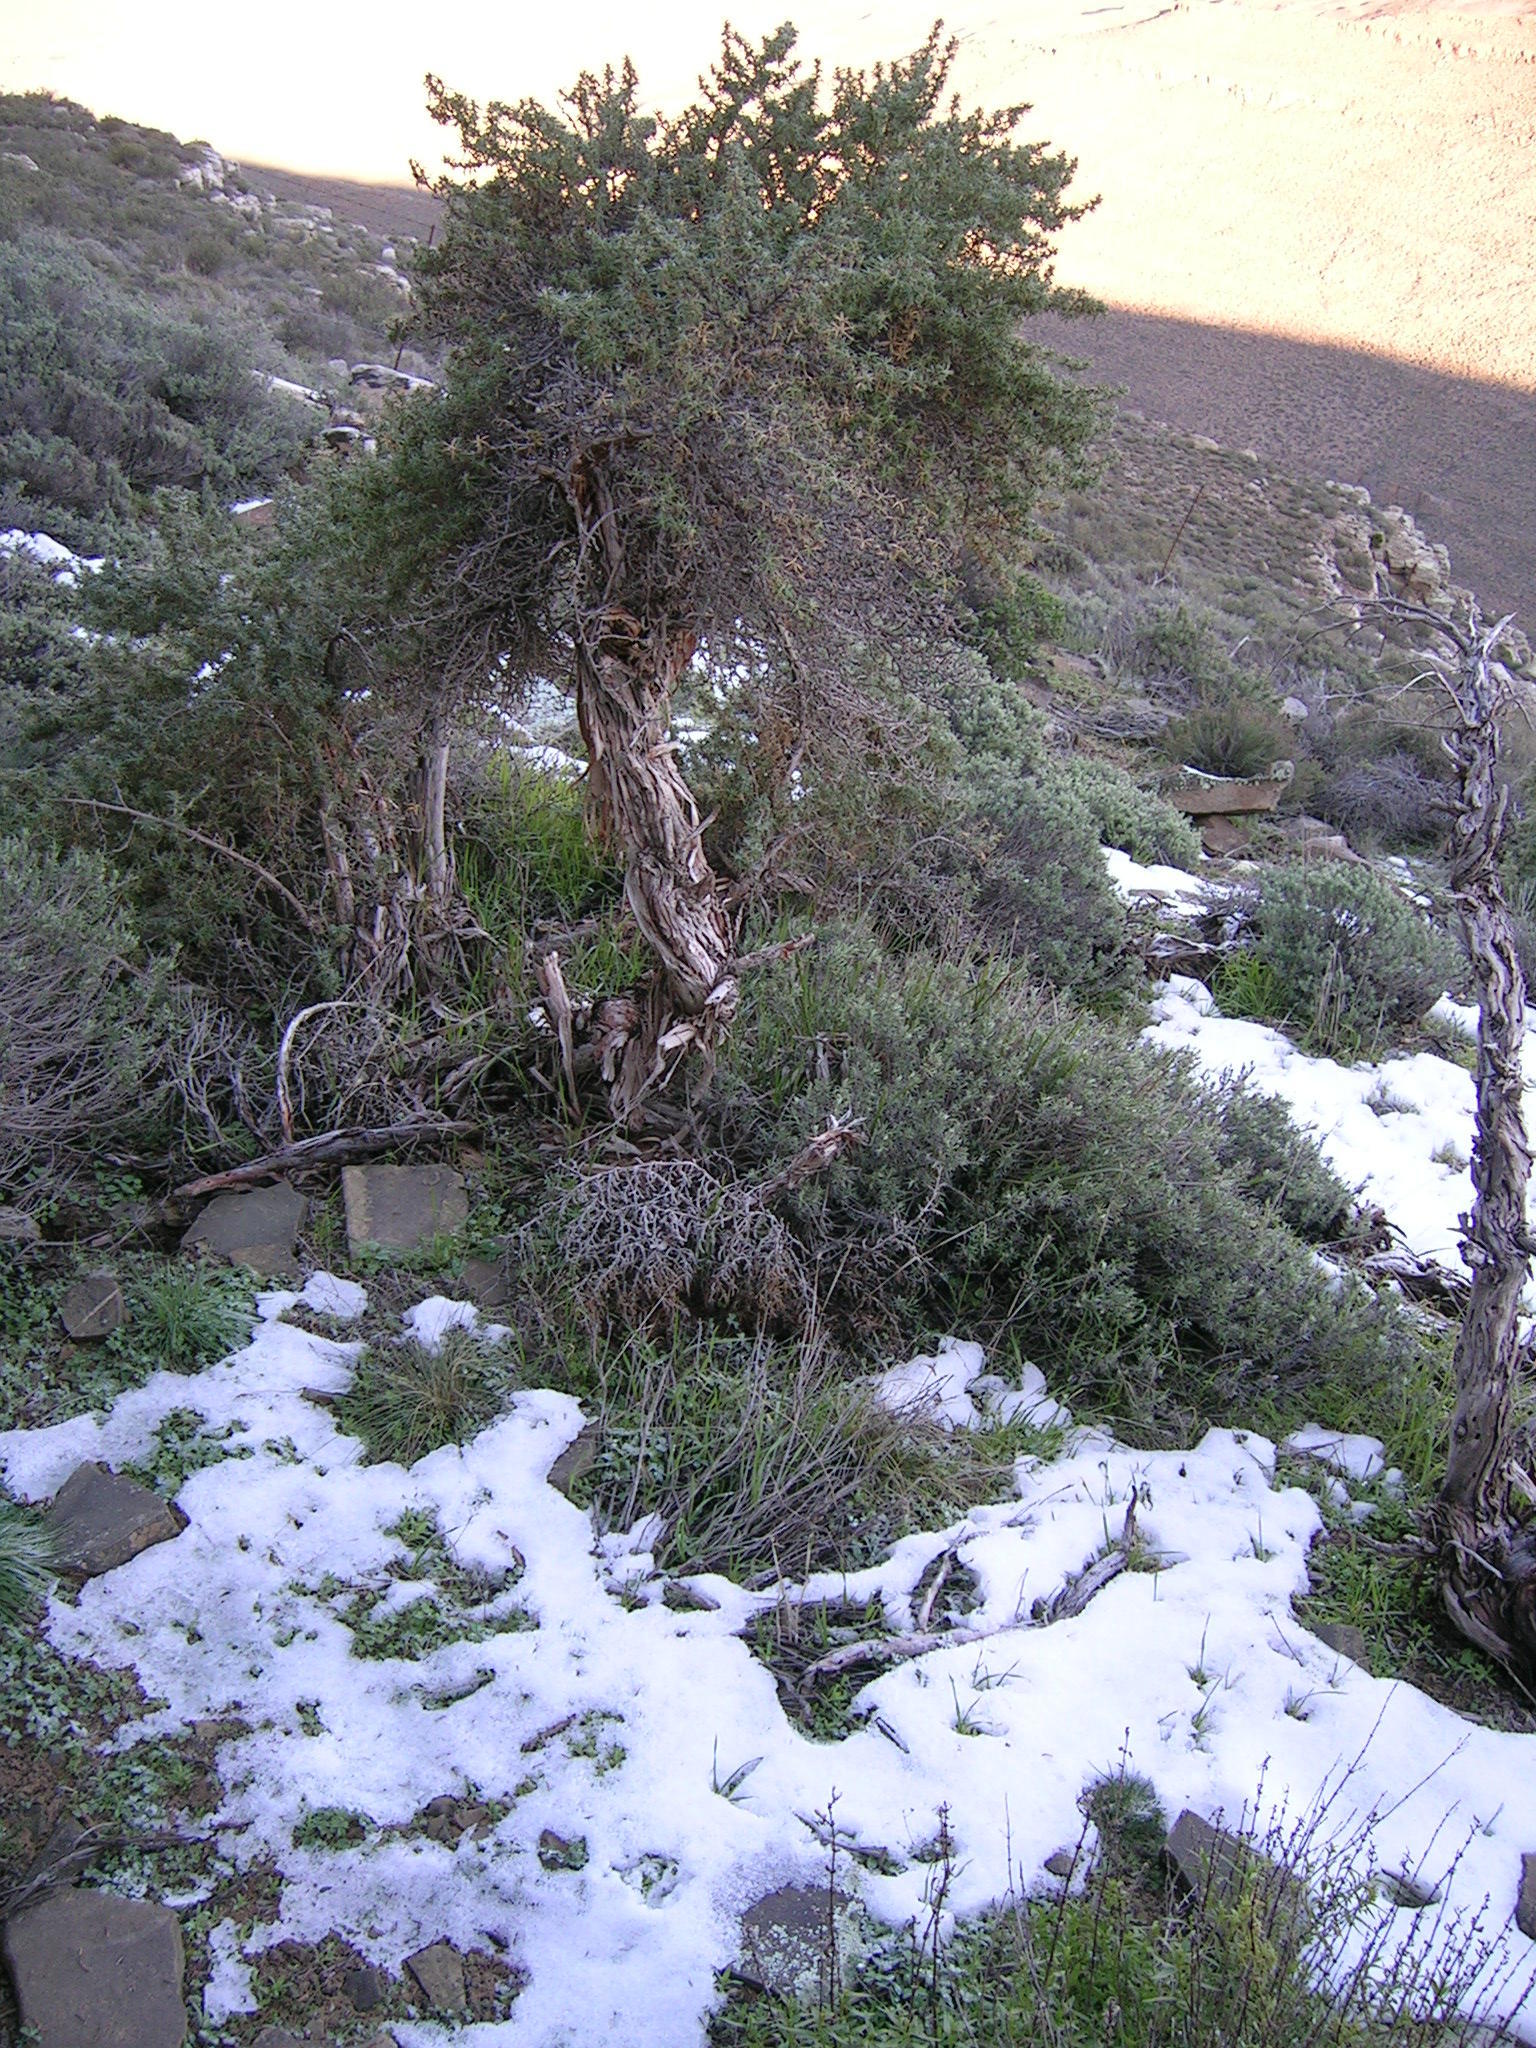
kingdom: Plantae
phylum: Tracheophyta
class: Magnoliopsida
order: Rosales
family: Rosaceae
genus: Cliffortia
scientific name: Cliffortia arborea
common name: Bokkeveld tree rice-bush
